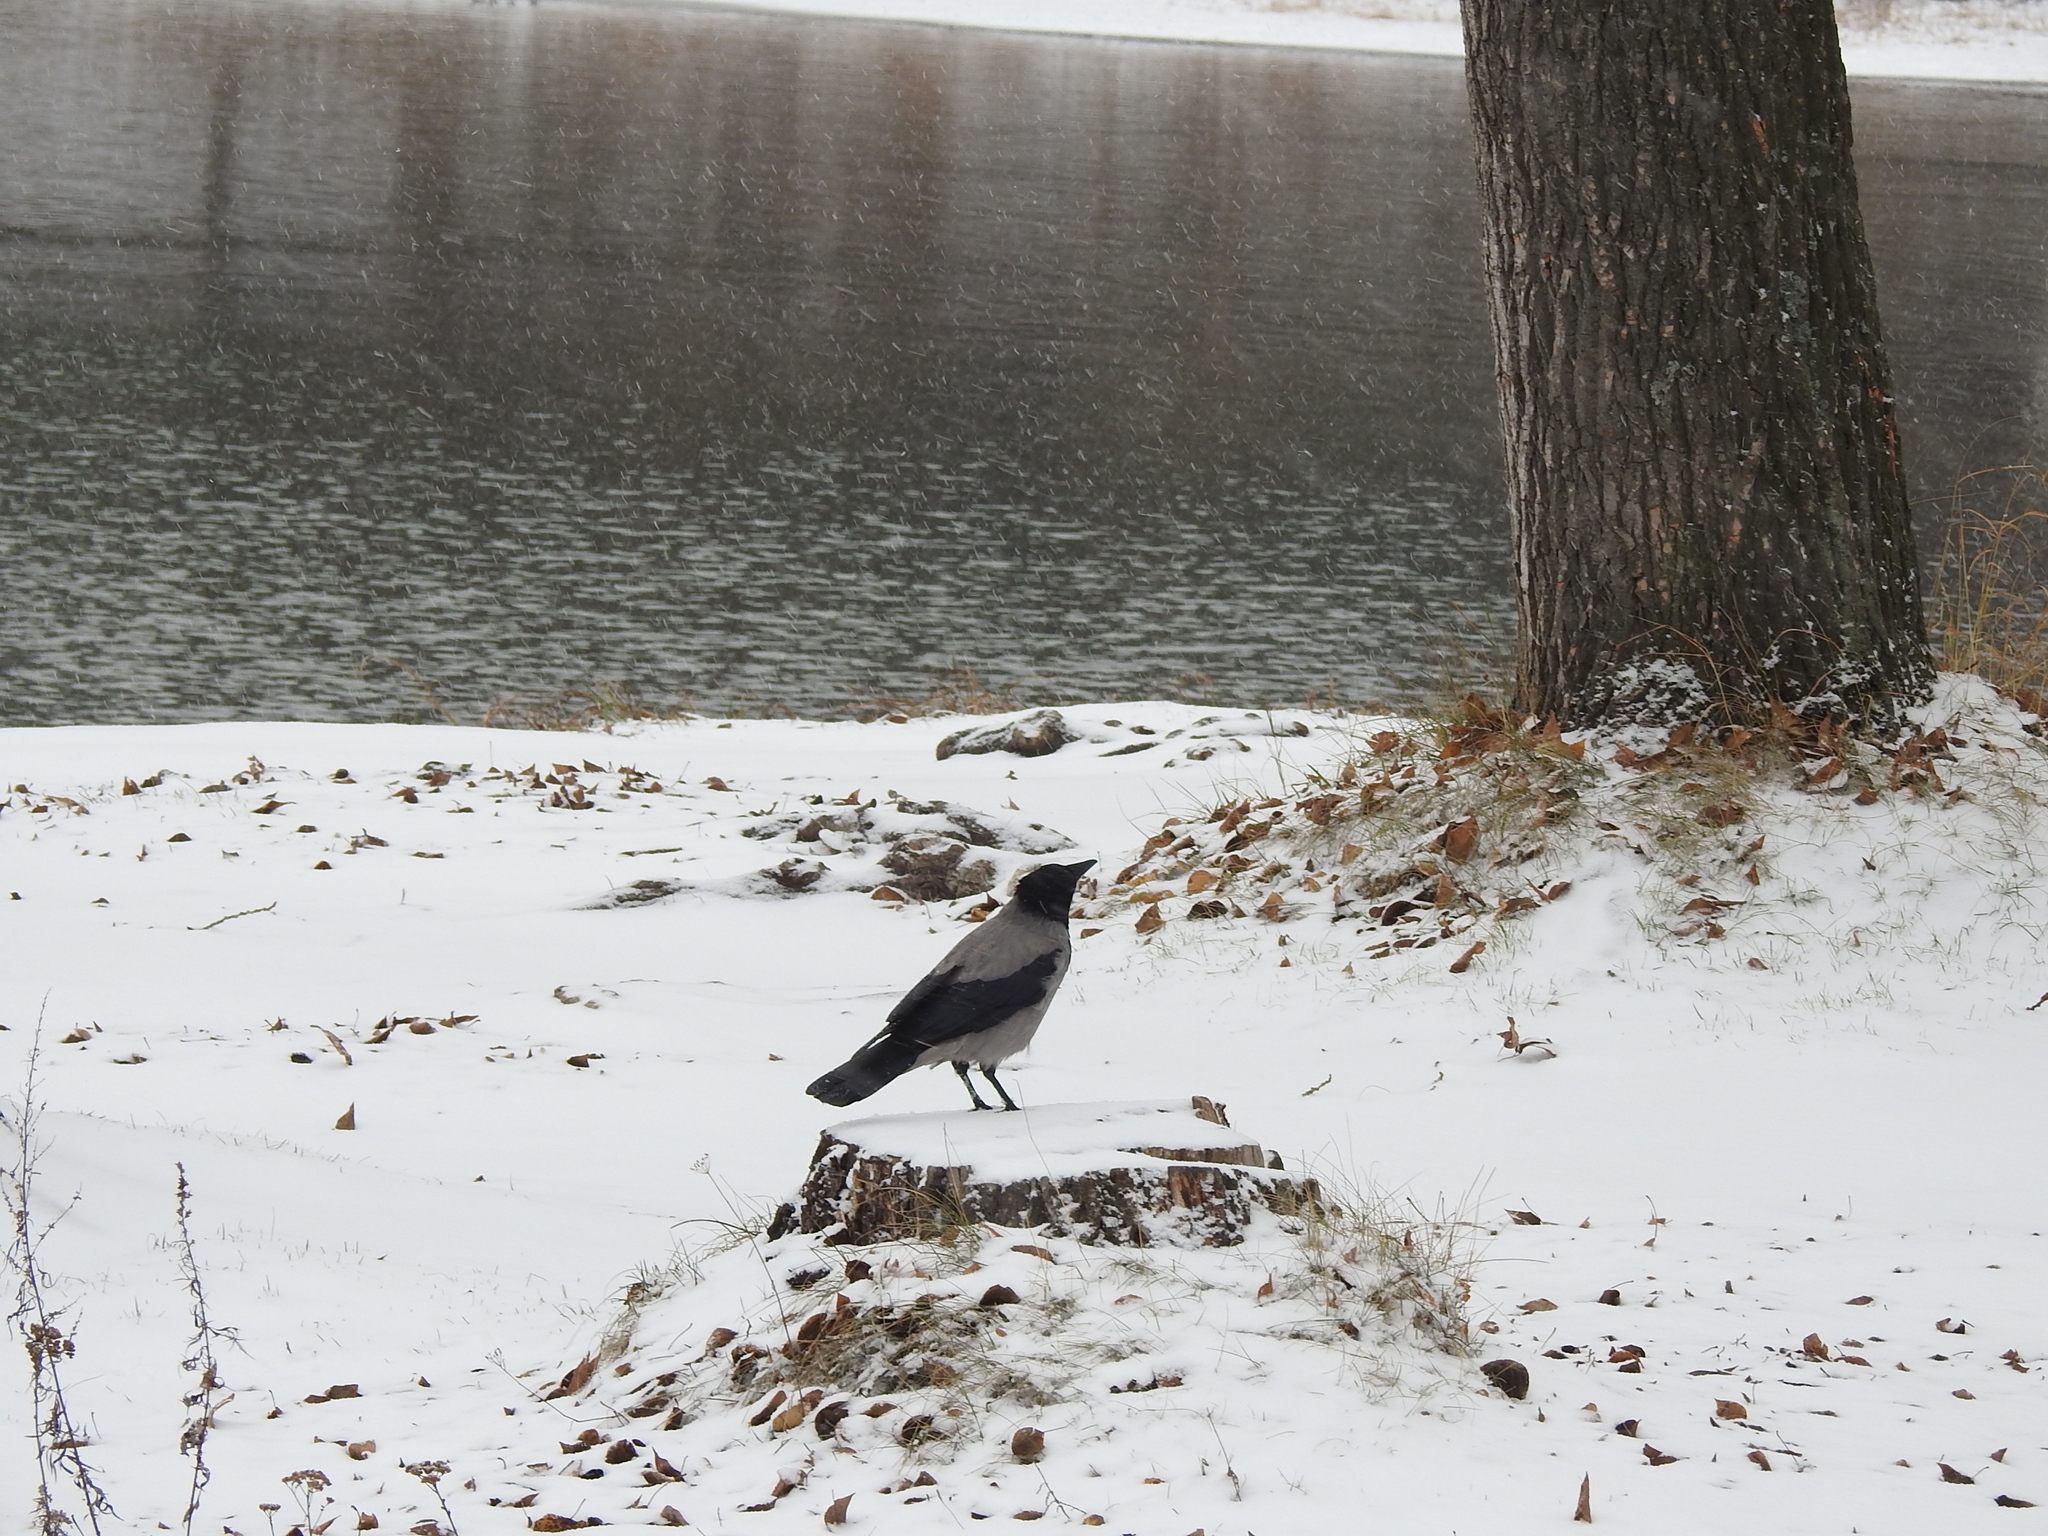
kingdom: Animalia
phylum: Chordata
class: Aves
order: Passeriformes
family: Corvidae
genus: Corvus
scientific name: Corvus cornix
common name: Hooded crow
